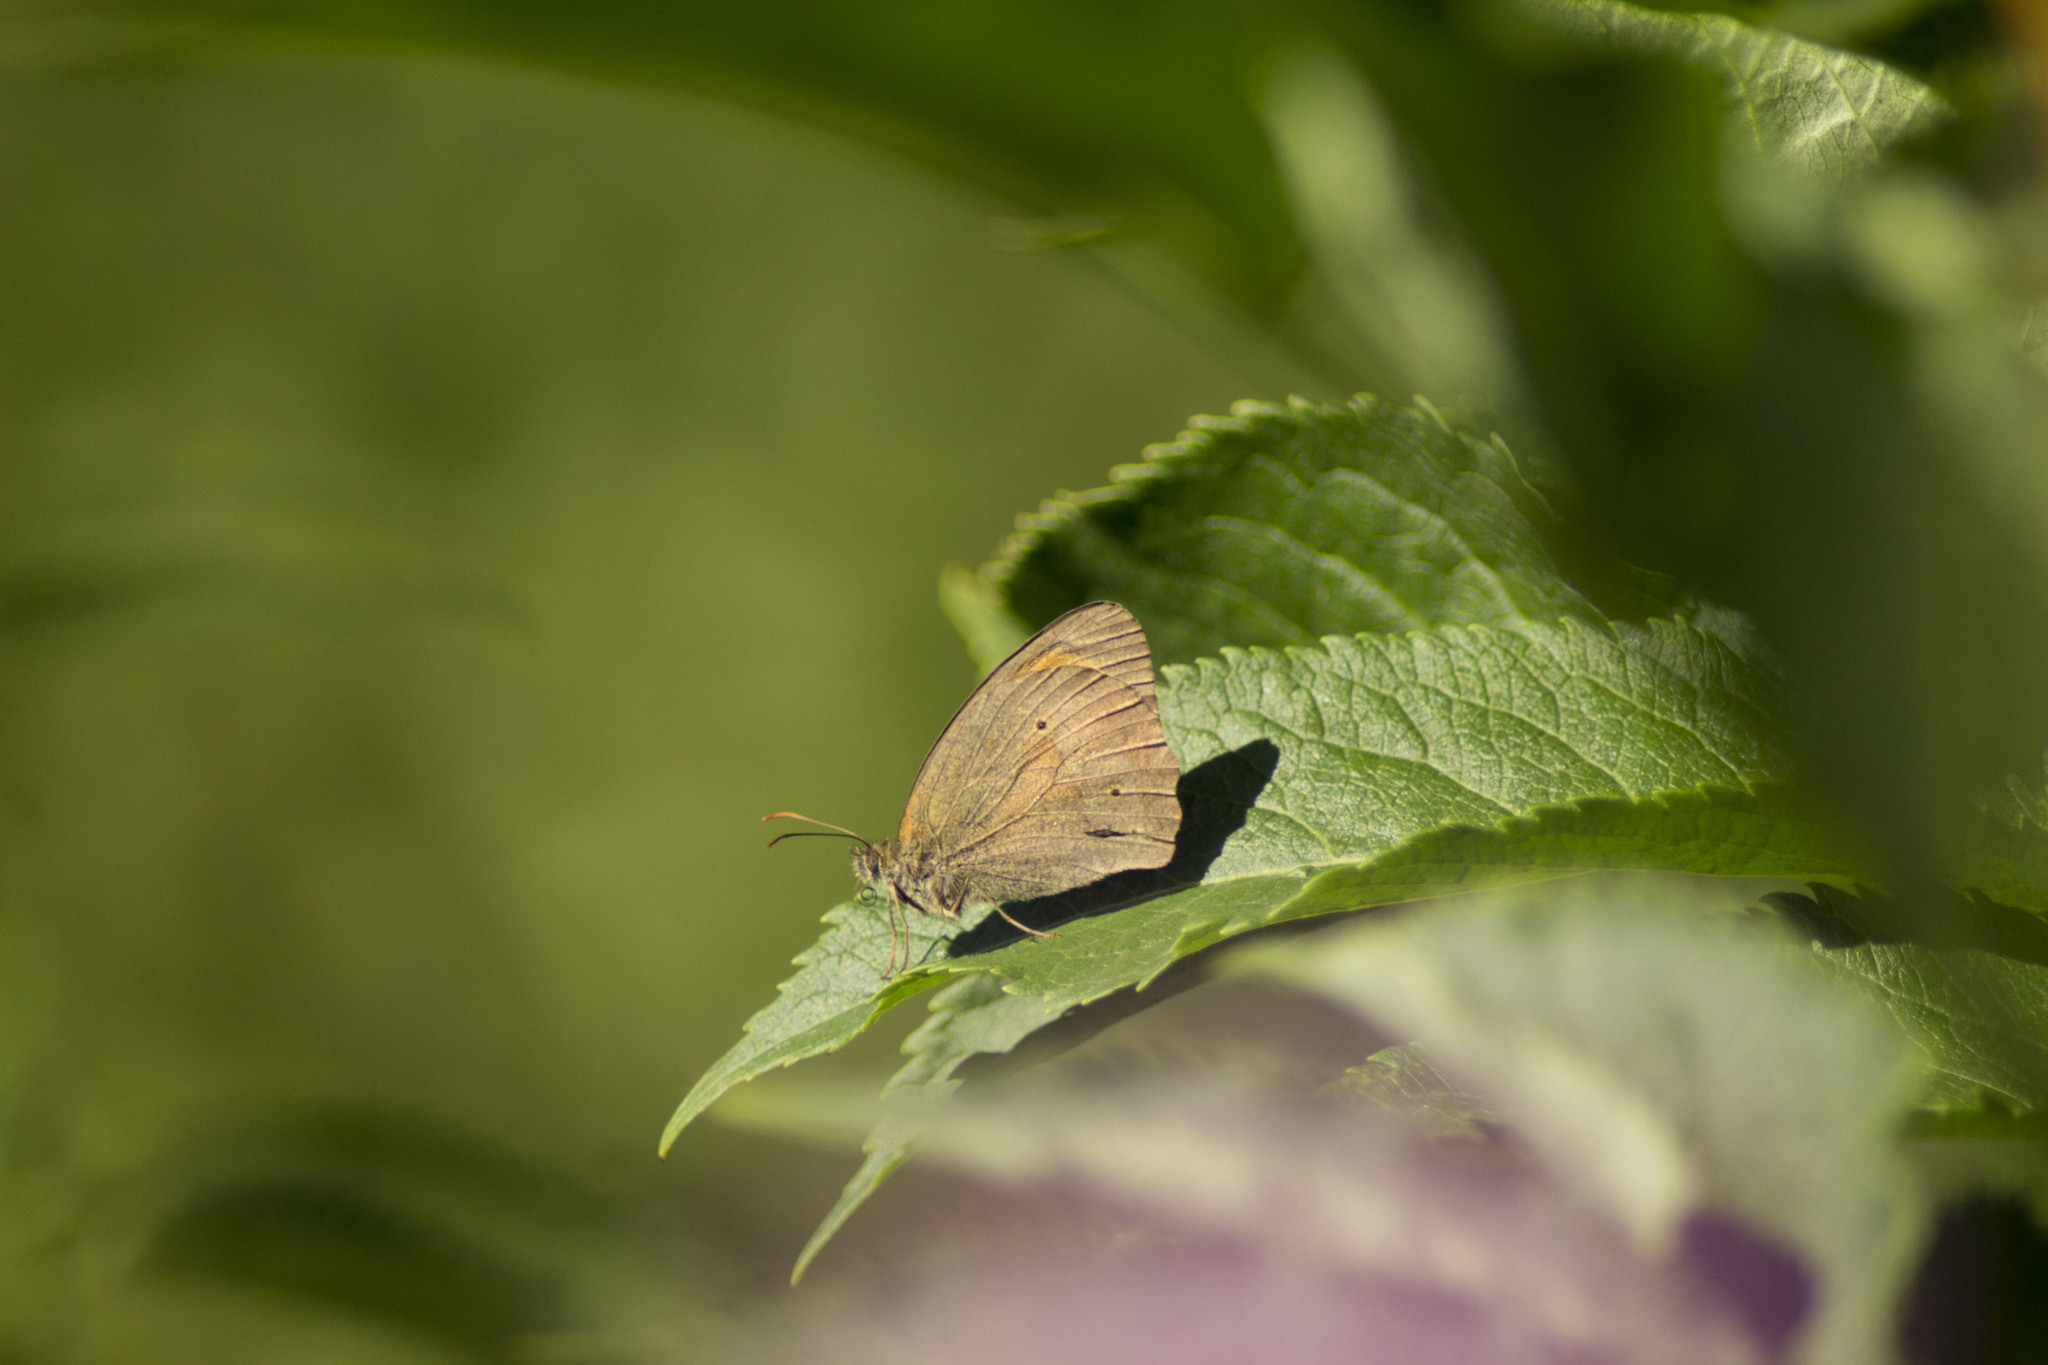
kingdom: Animalia
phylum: Arthropoda
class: Insecta
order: Lepidoptera
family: Nymphalidae
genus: Maniola
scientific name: Maniola jurtina
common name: Meadow brown
